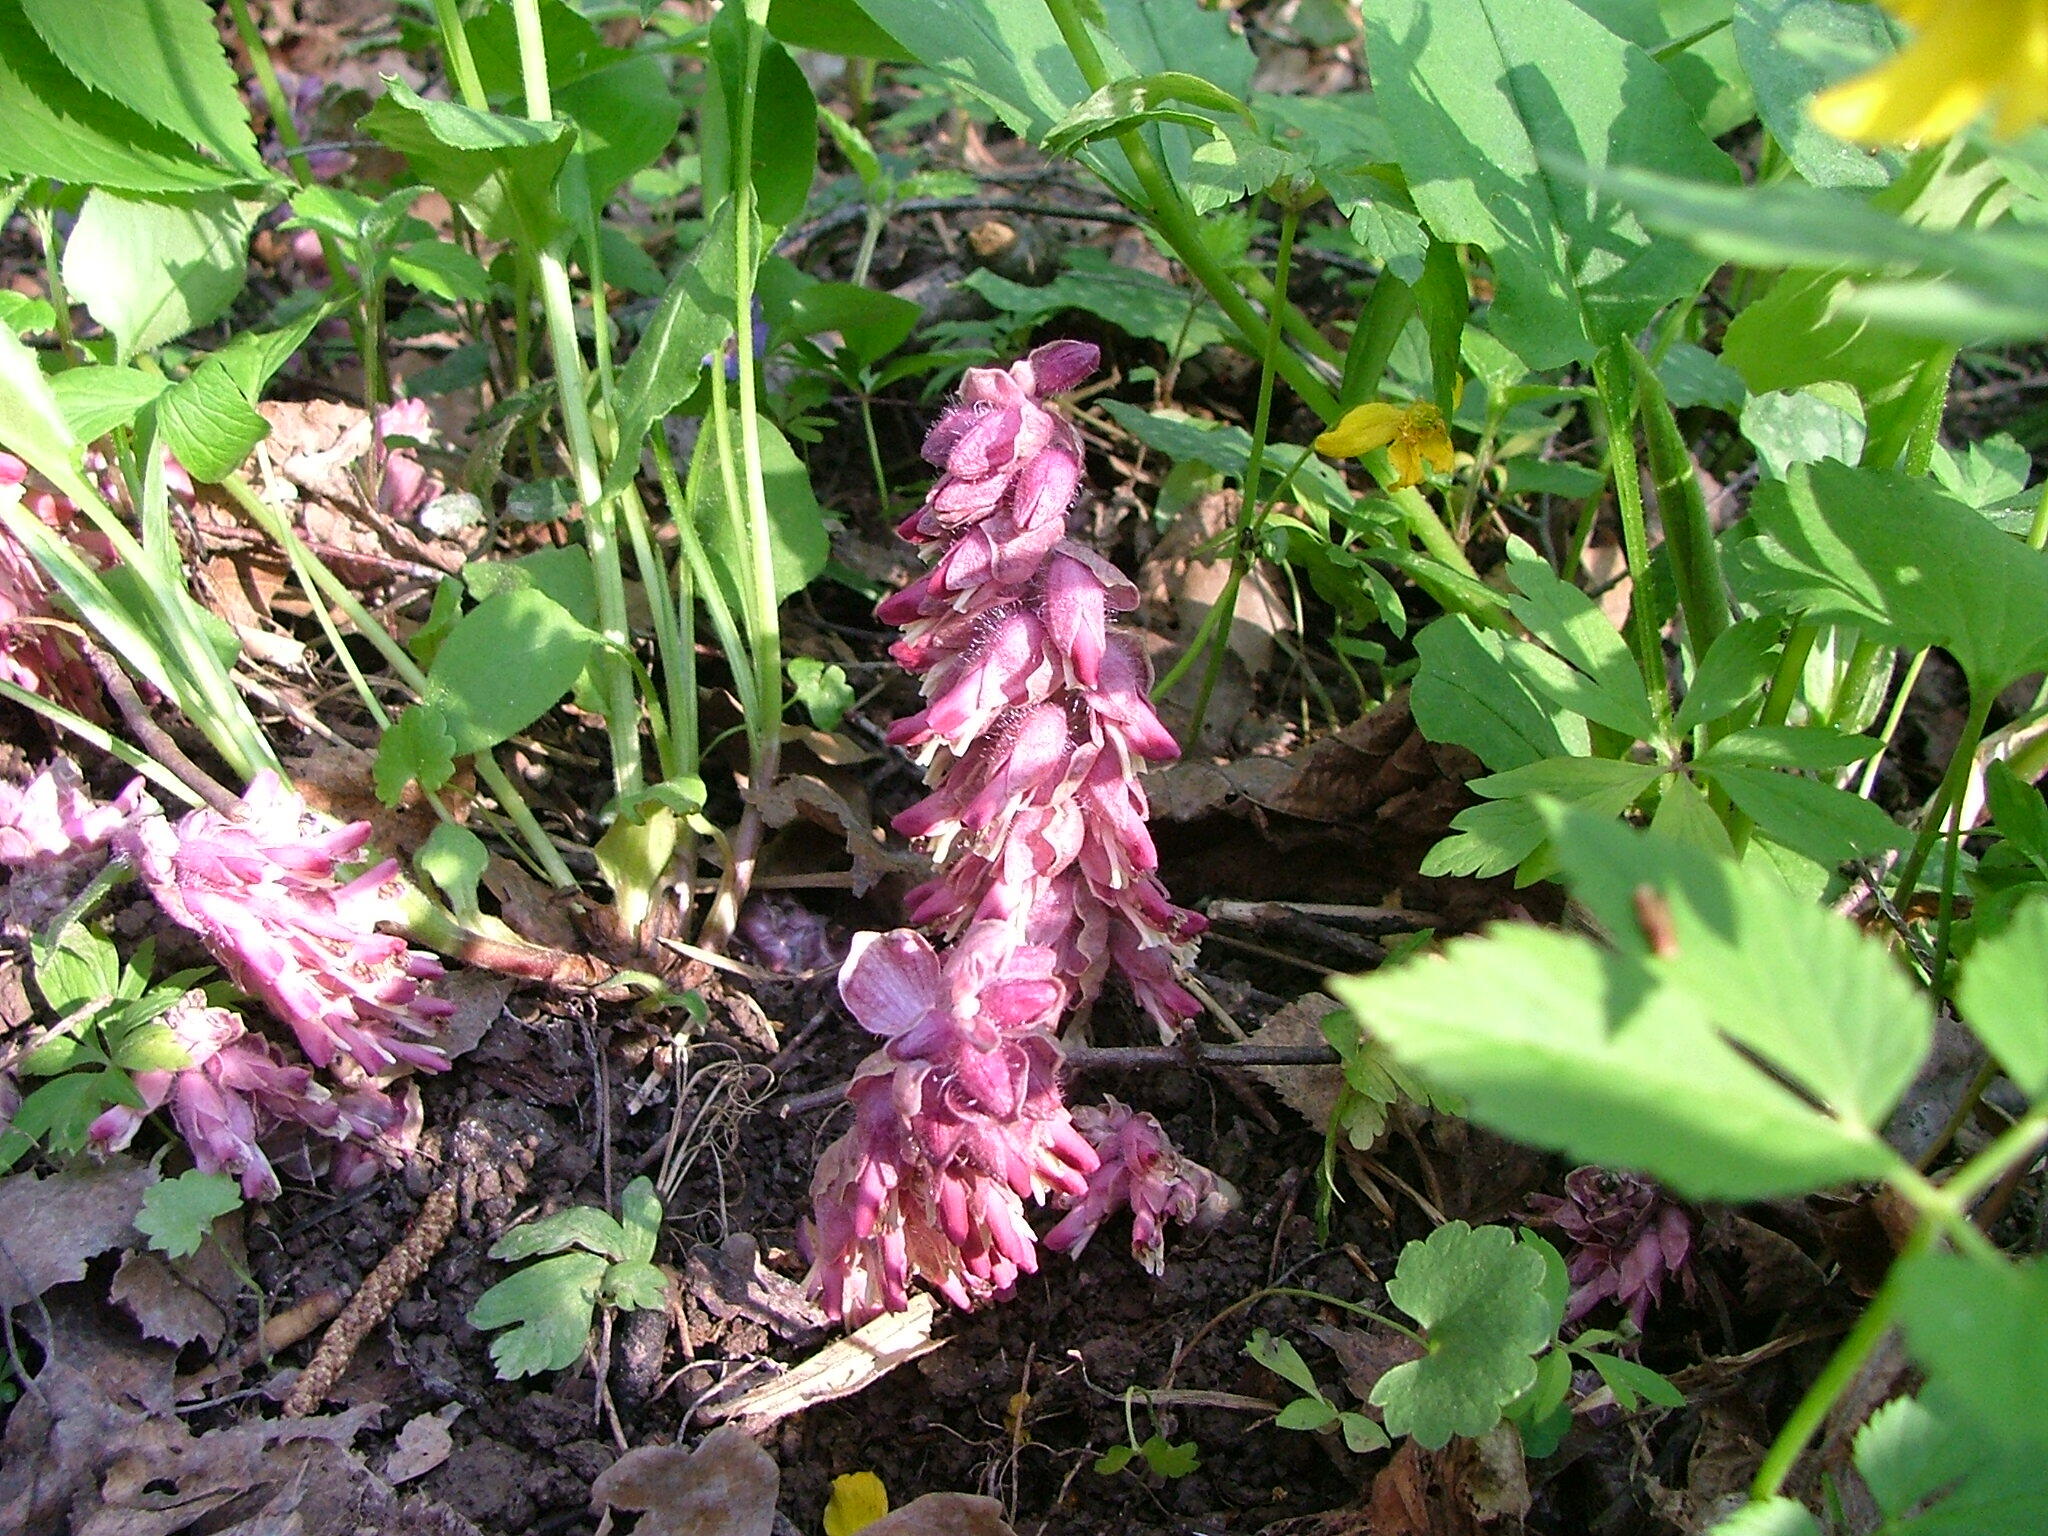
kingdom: Plantae
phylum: Tracheophyta
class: Magnoliopsida
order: Lamiales
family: Orobanchaceae
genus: Lathraea
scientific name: Lathraea squamaria
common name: Toothwort
